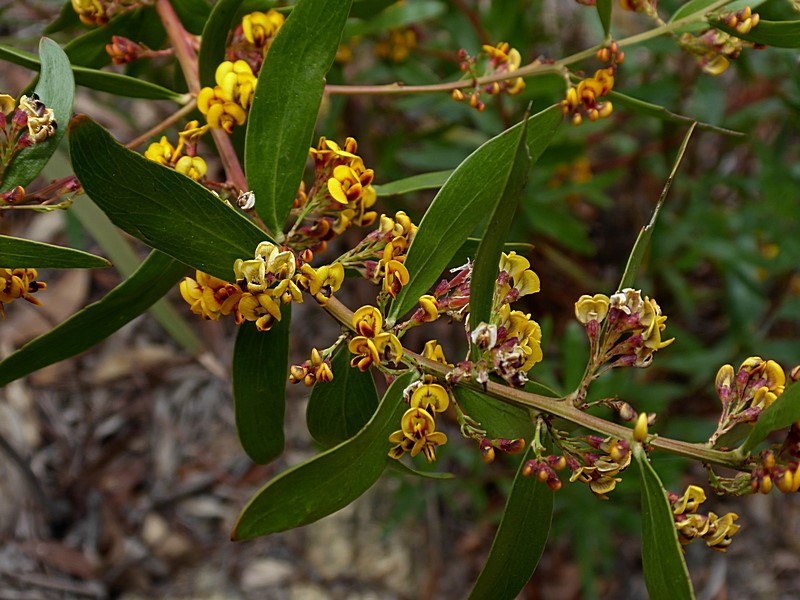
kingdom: Plantae
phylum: Tracheophyta
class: Magnoliopsida
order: Fabales
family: Fabaceae
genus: Daviesia
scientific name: Daviesia mimosoides
